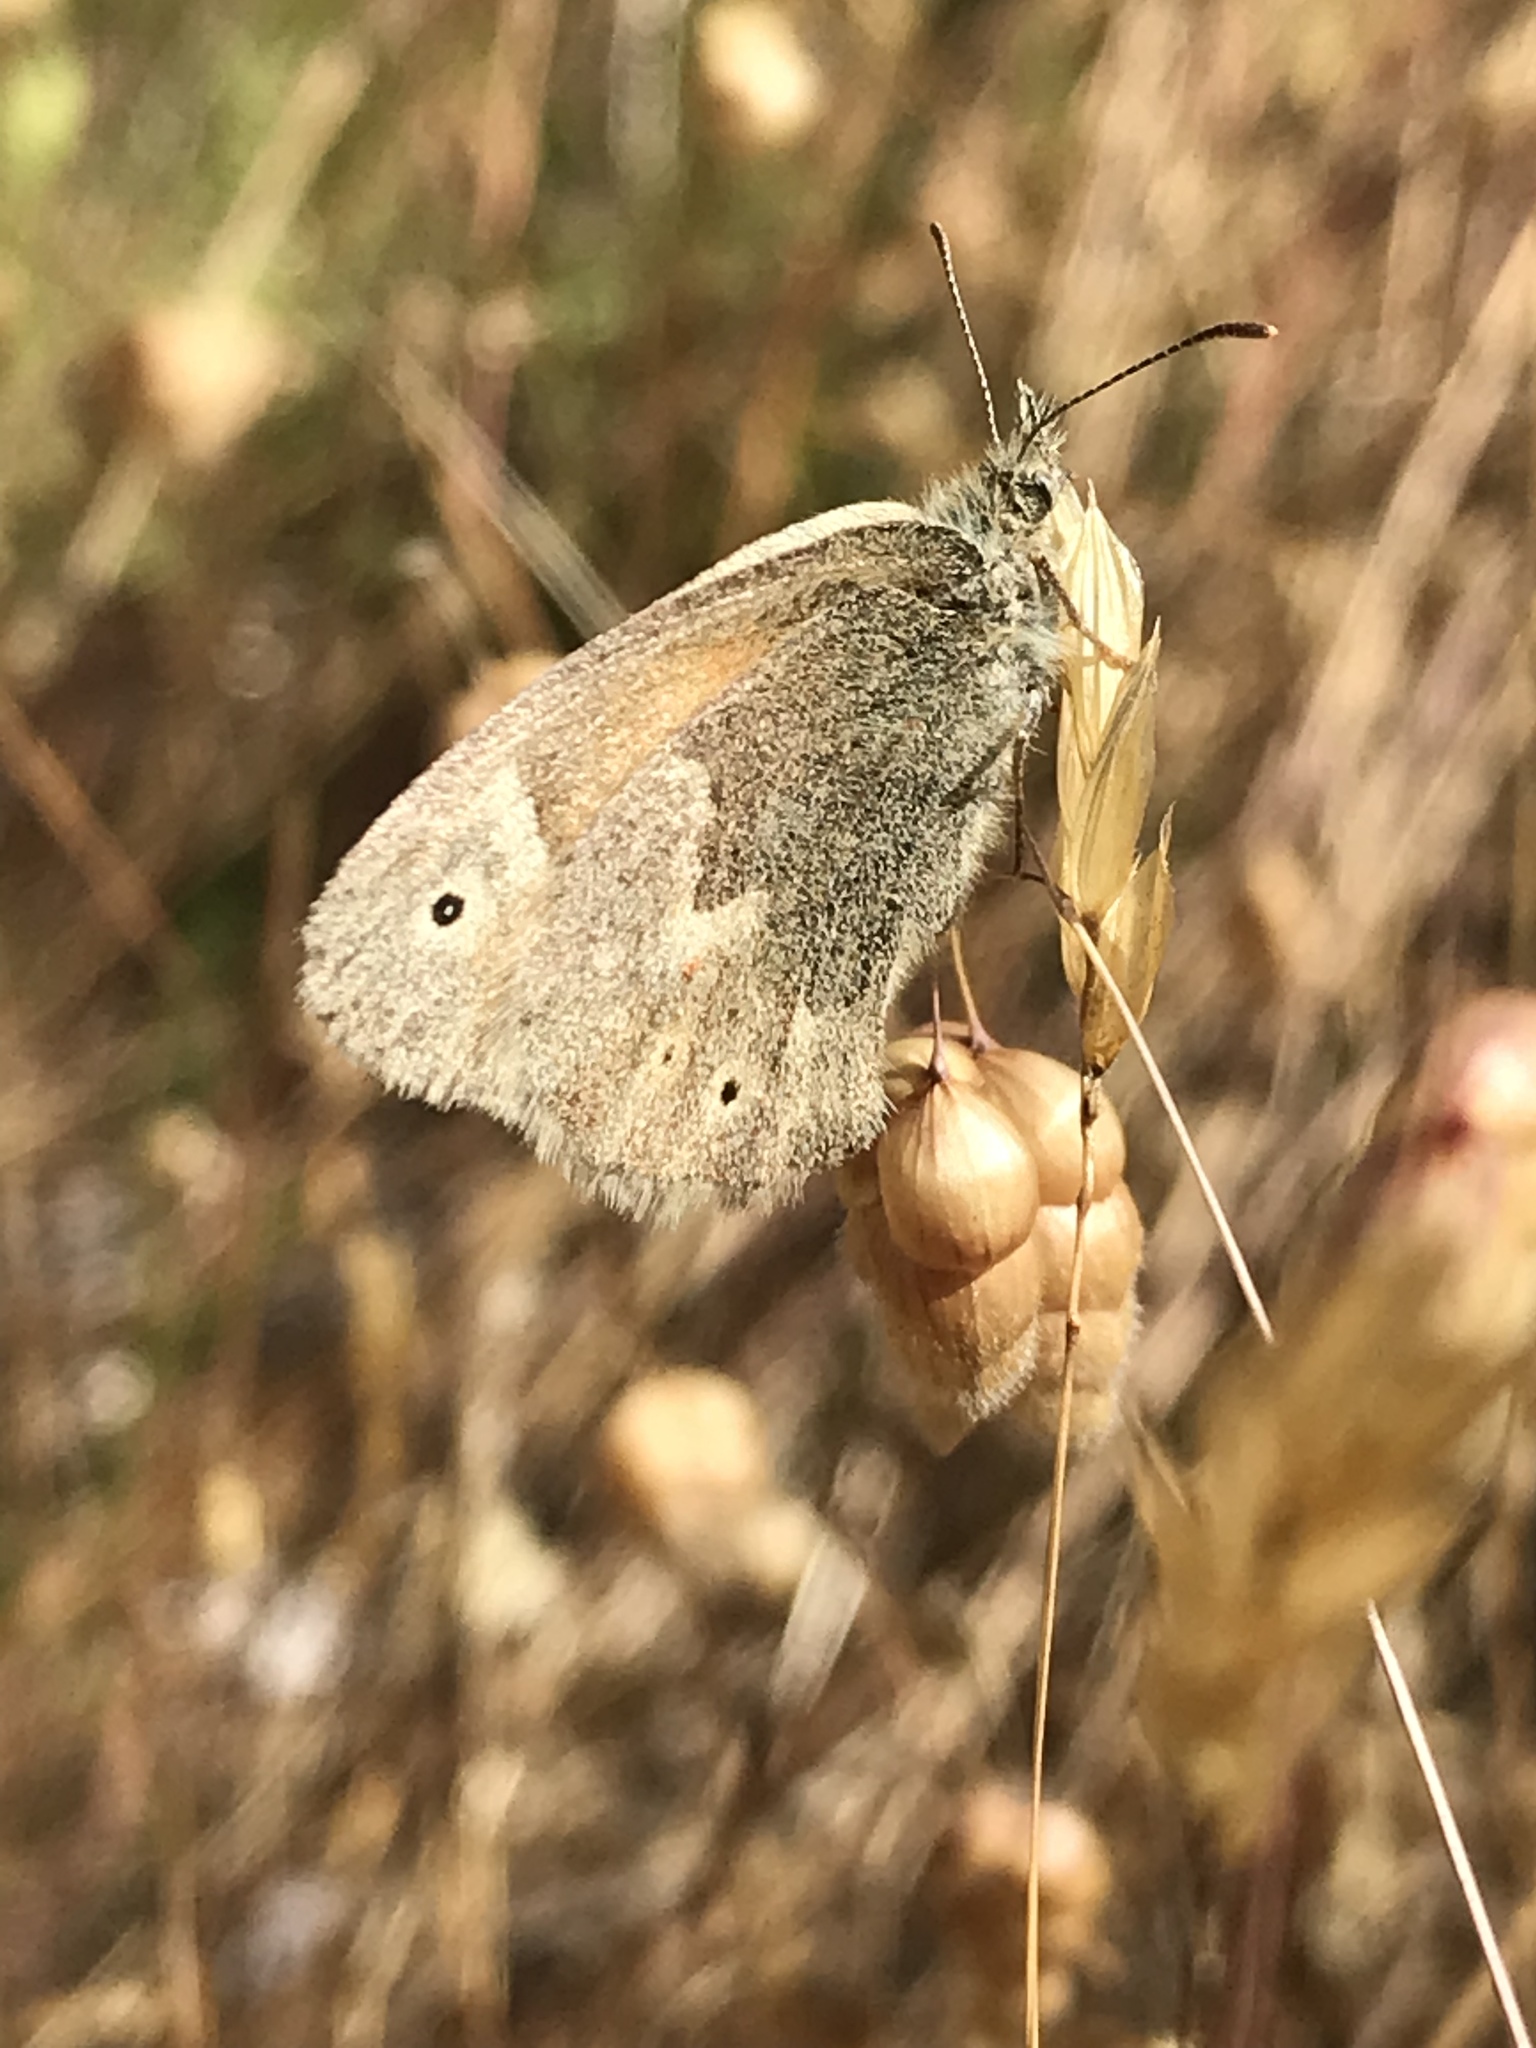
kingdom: Animalia
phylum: Arthropoda
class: Insecta
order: Lepidoptera
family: Nymphalidae
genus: Coenonympha
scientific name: Coenonympha california
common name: Common ringlet
